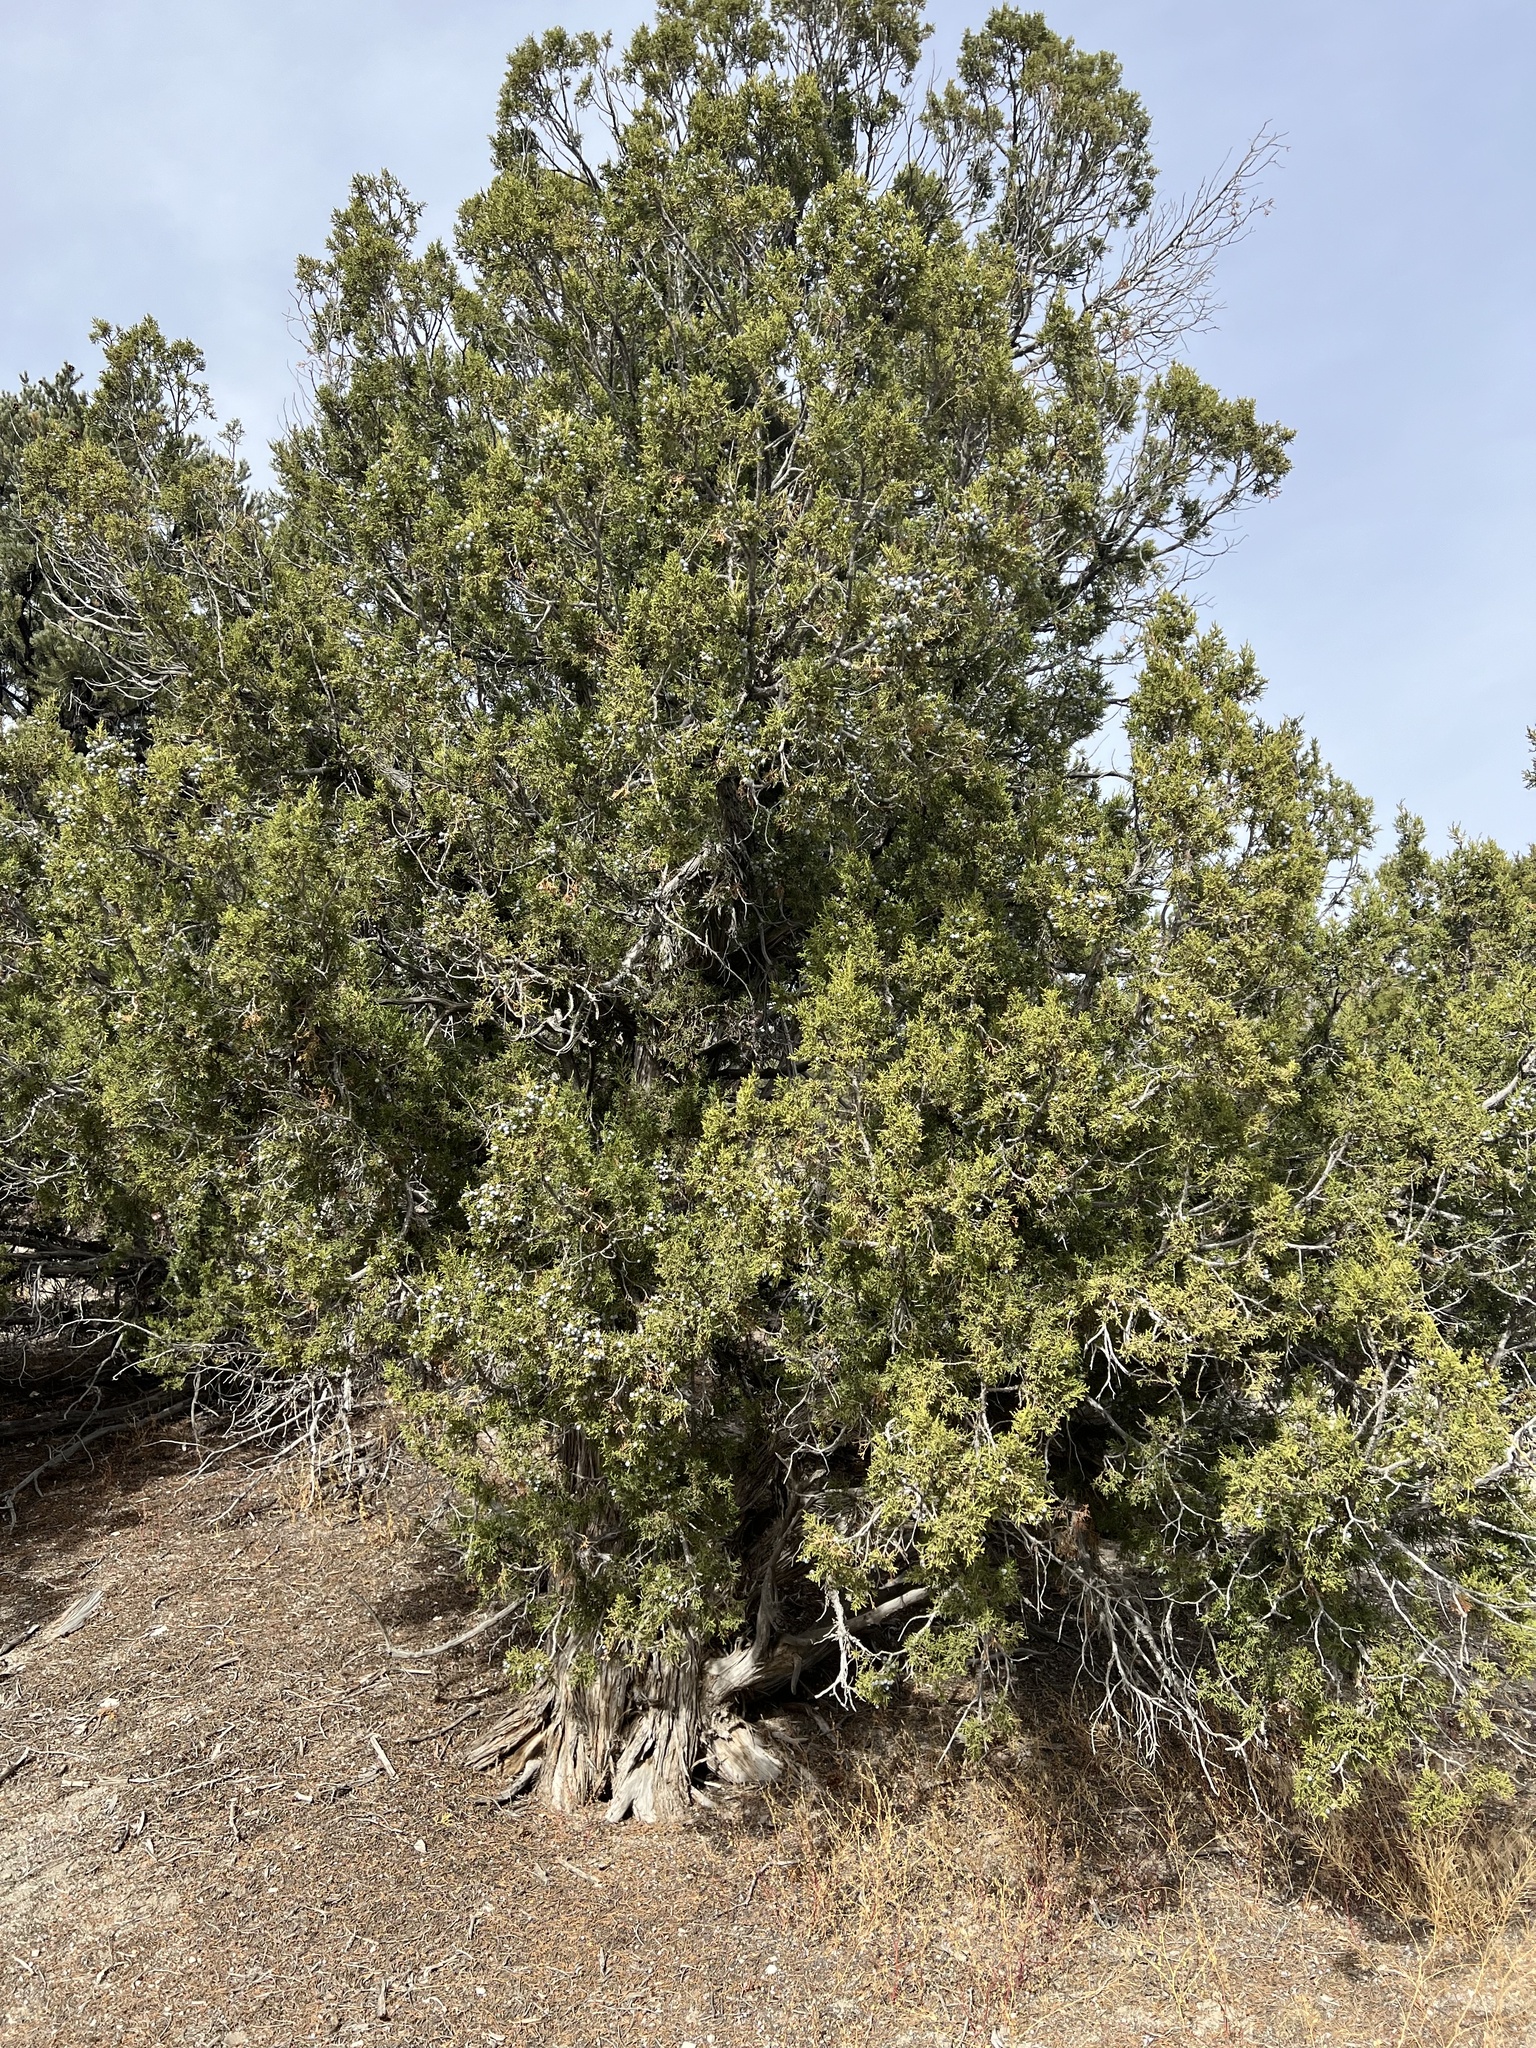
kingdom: Plantae
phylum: Tracheophyta
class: Pinopsida
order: Pinales
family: Cupressaceae
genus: Juniperus
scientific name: Juniperus osteosperma
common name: Utah juniper
